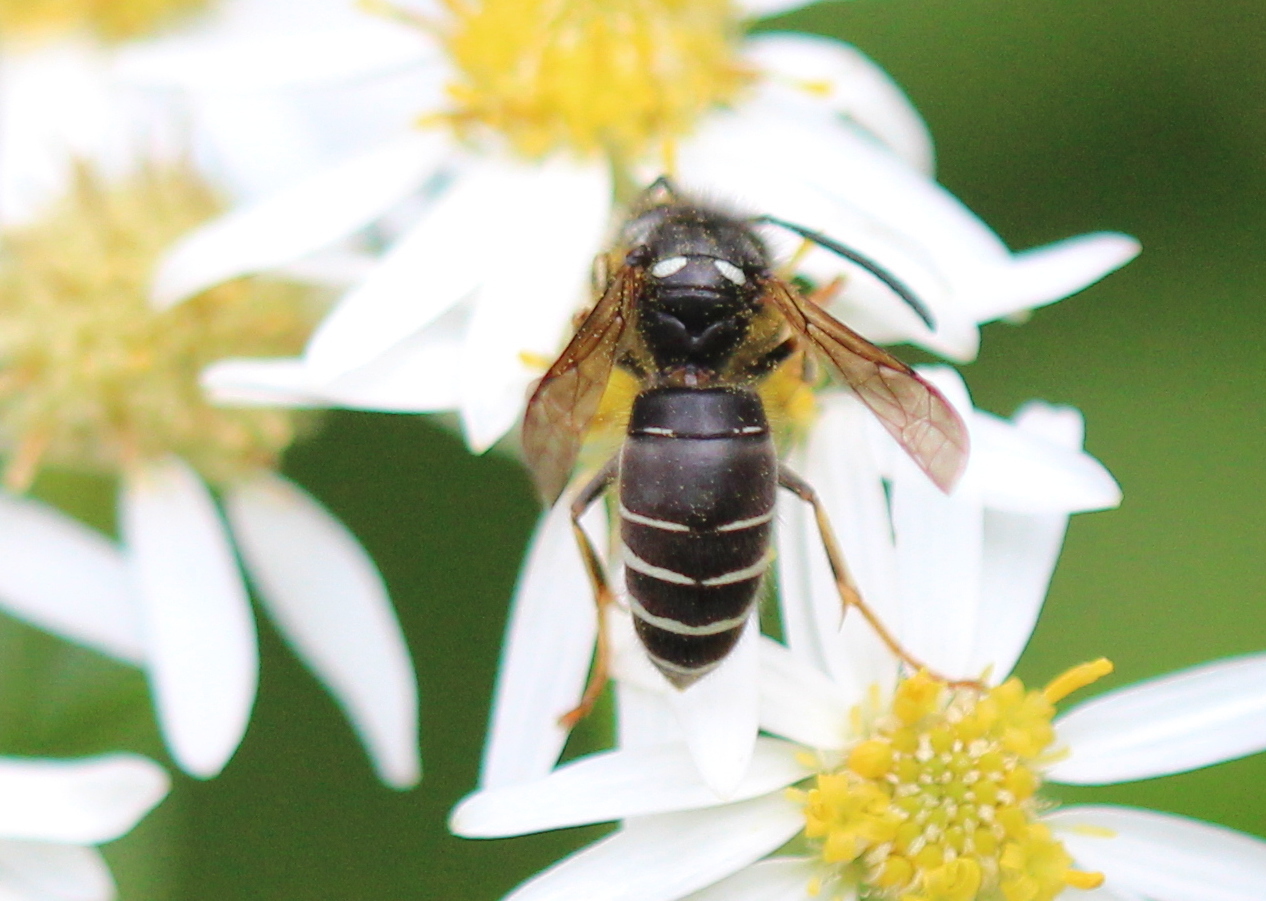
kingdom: Animalia
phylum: Arthropoda
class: Insecta
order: Hymenoptera
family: Vespidae
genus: Vespula
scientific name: Vespula consobrina
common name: Blackjacket
